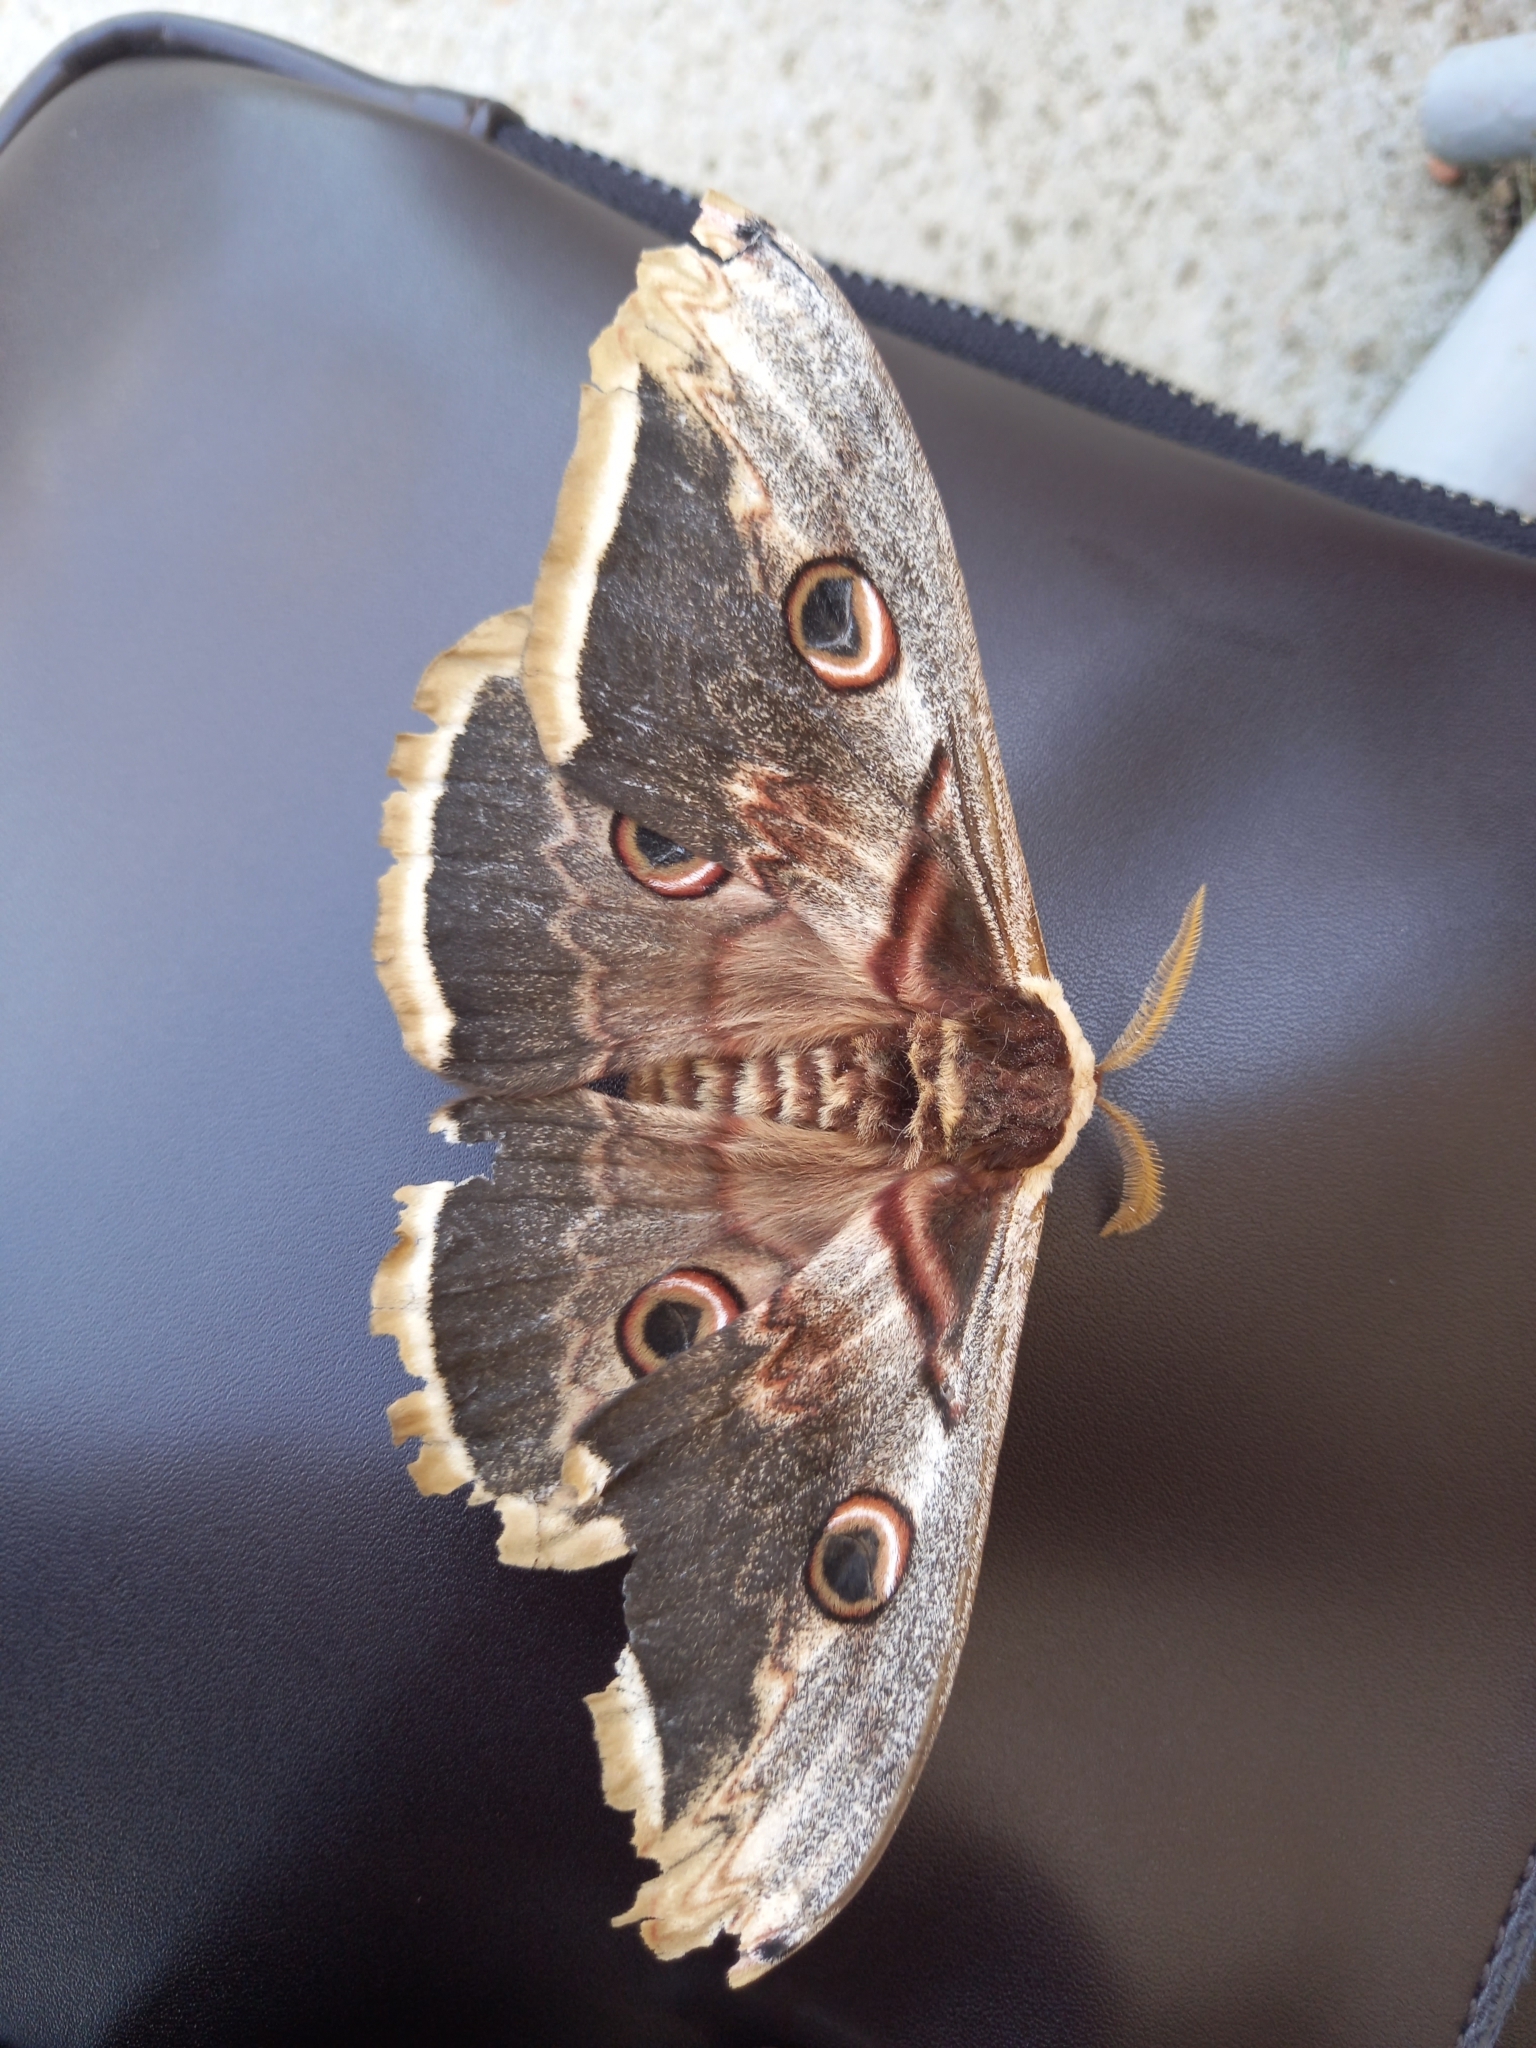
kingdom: Animalia
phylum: Arthropoda
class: Insecta
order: Lepidoptera
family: Saturniidae
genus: Saturnia
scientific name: Saturnia pyri
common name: Great peacock moth
